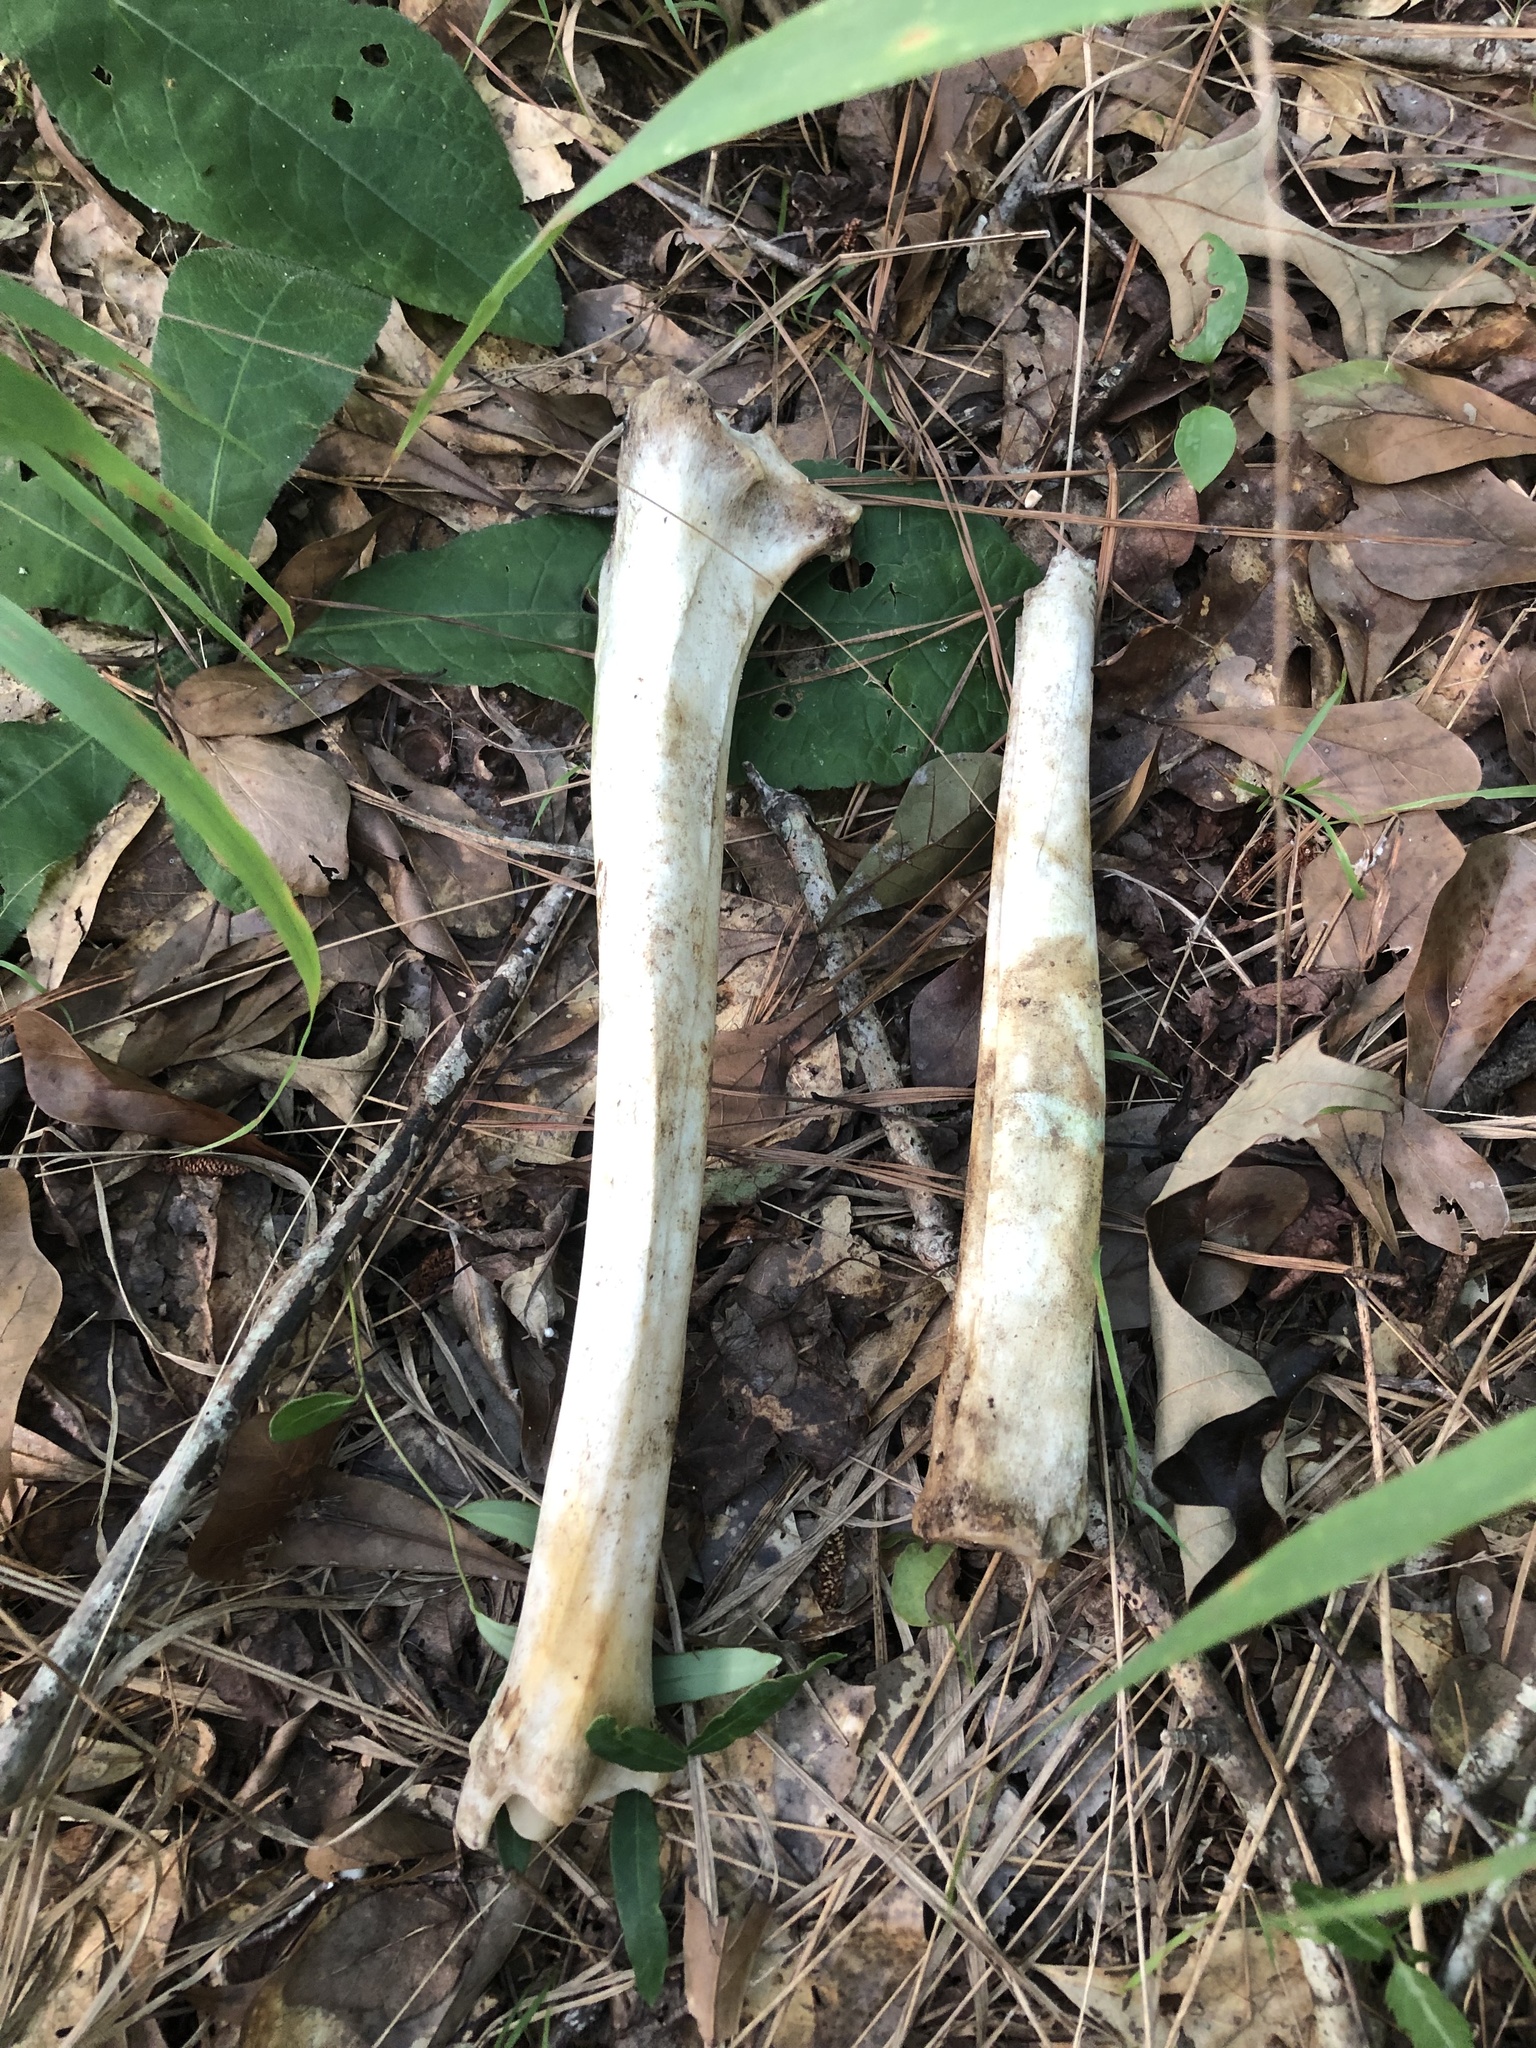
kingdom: Animalia
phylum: Chordata
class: Mammalia
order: Artiodactyla
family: Cervidae
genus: Odocoileus
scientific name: Odocoileus virginianus
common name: White-tailed deer
